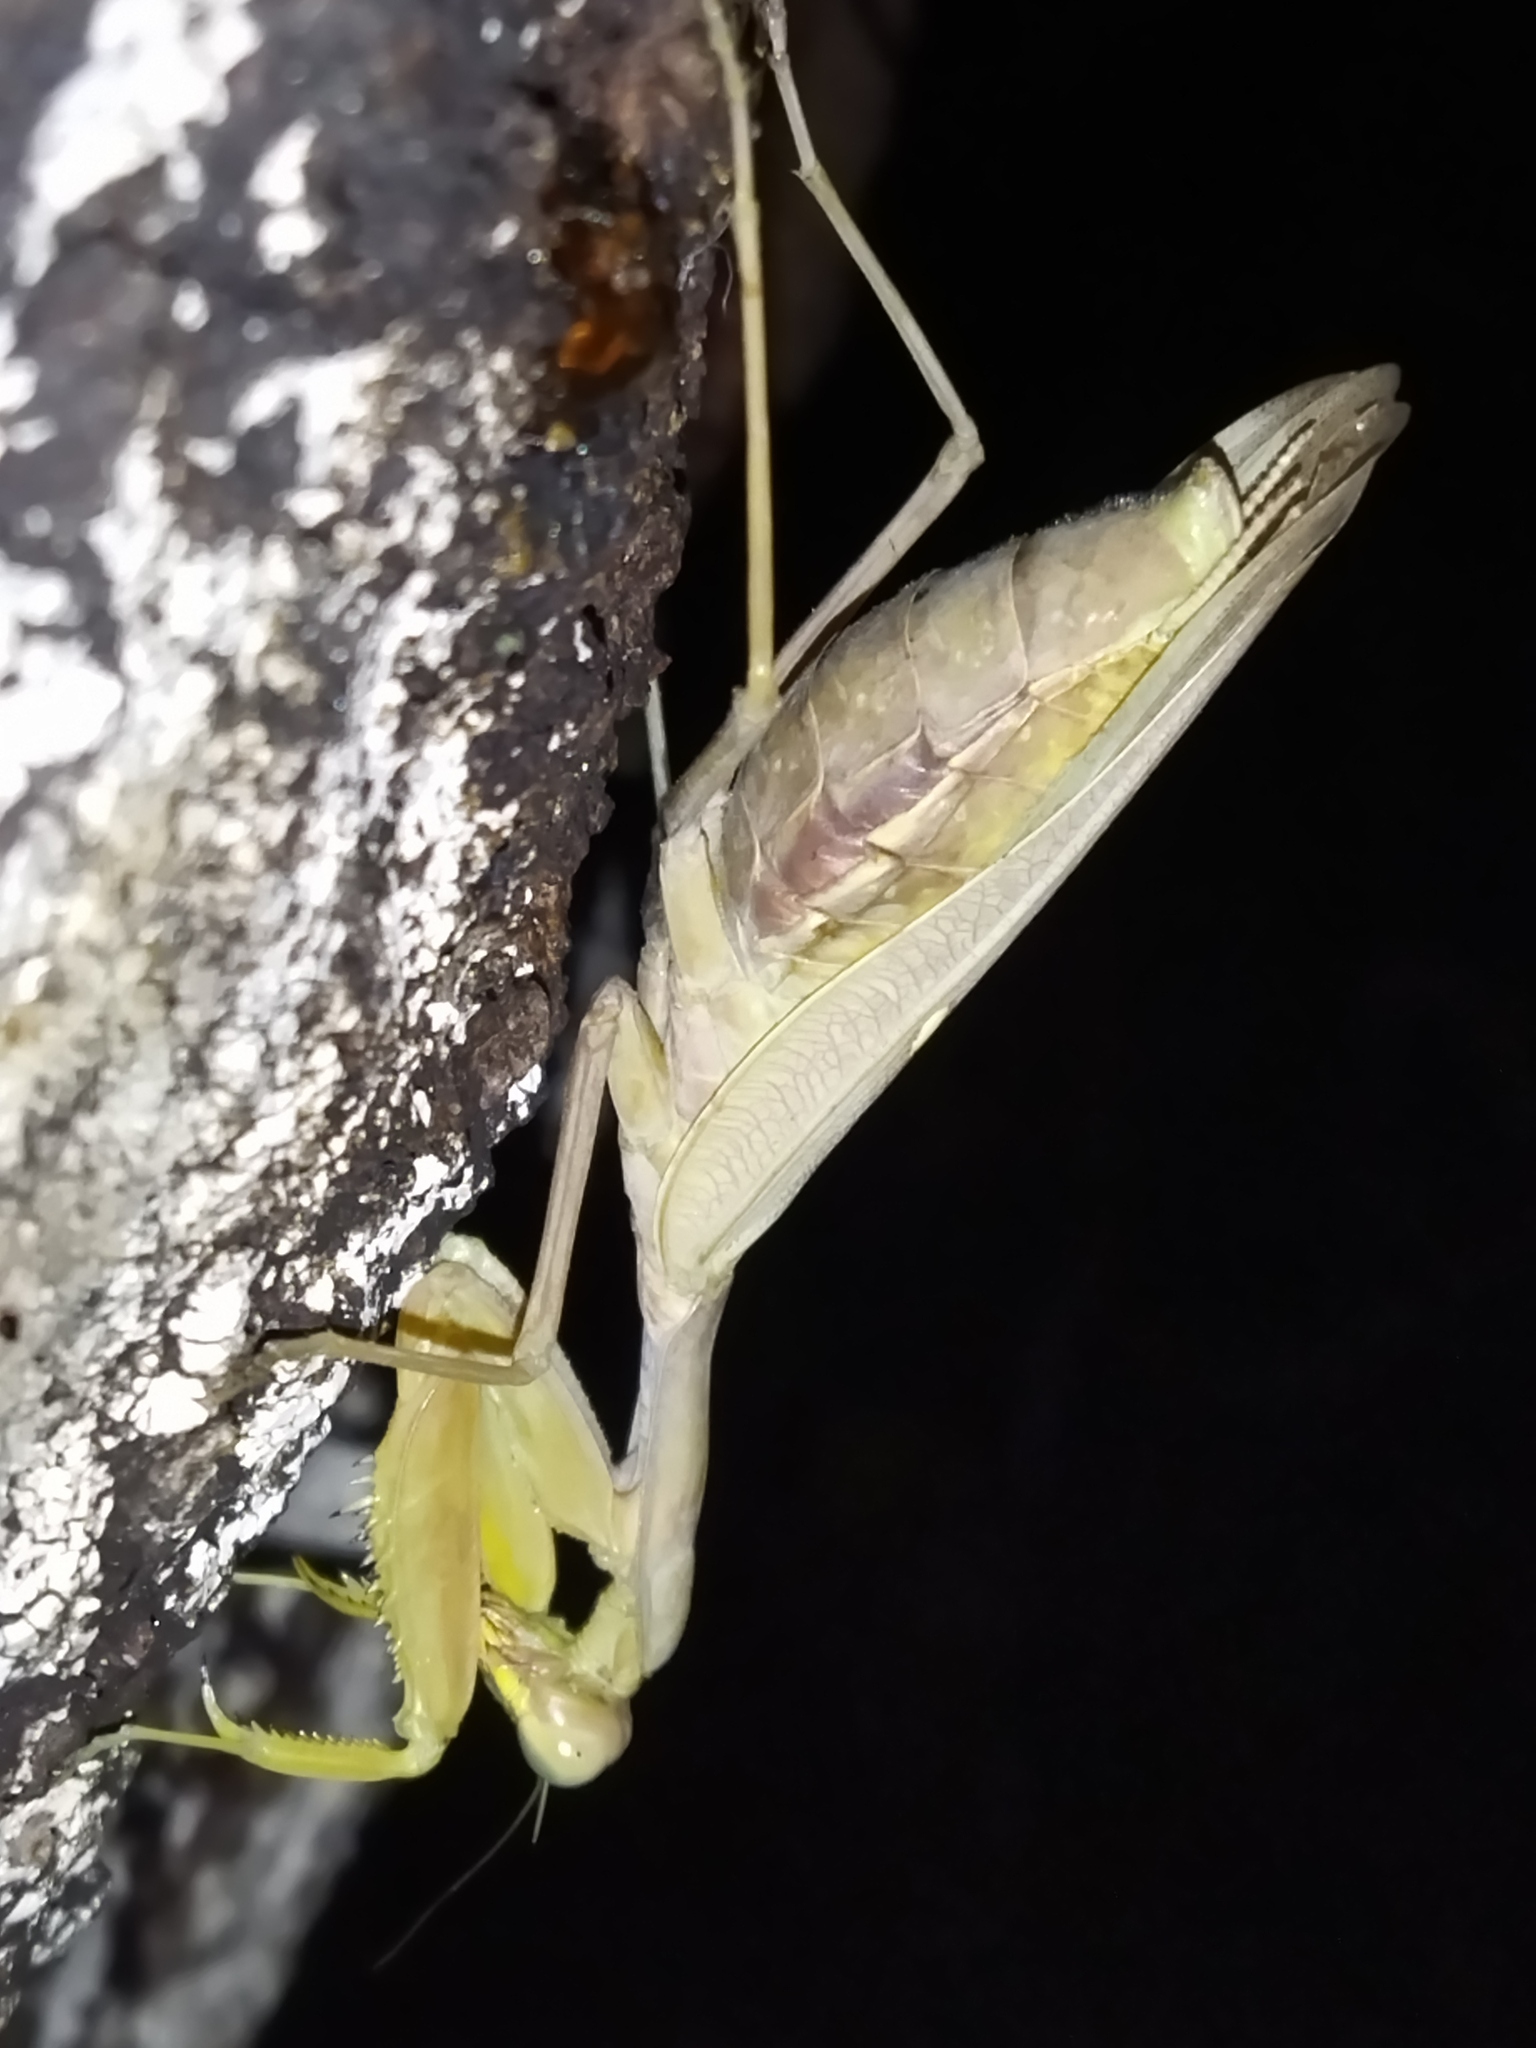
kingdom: Animalia
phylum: Arthropoda
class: Insecta
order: Mantodea
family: Mantidae
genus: Hierodula
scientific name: Hierodula transcaucasica
